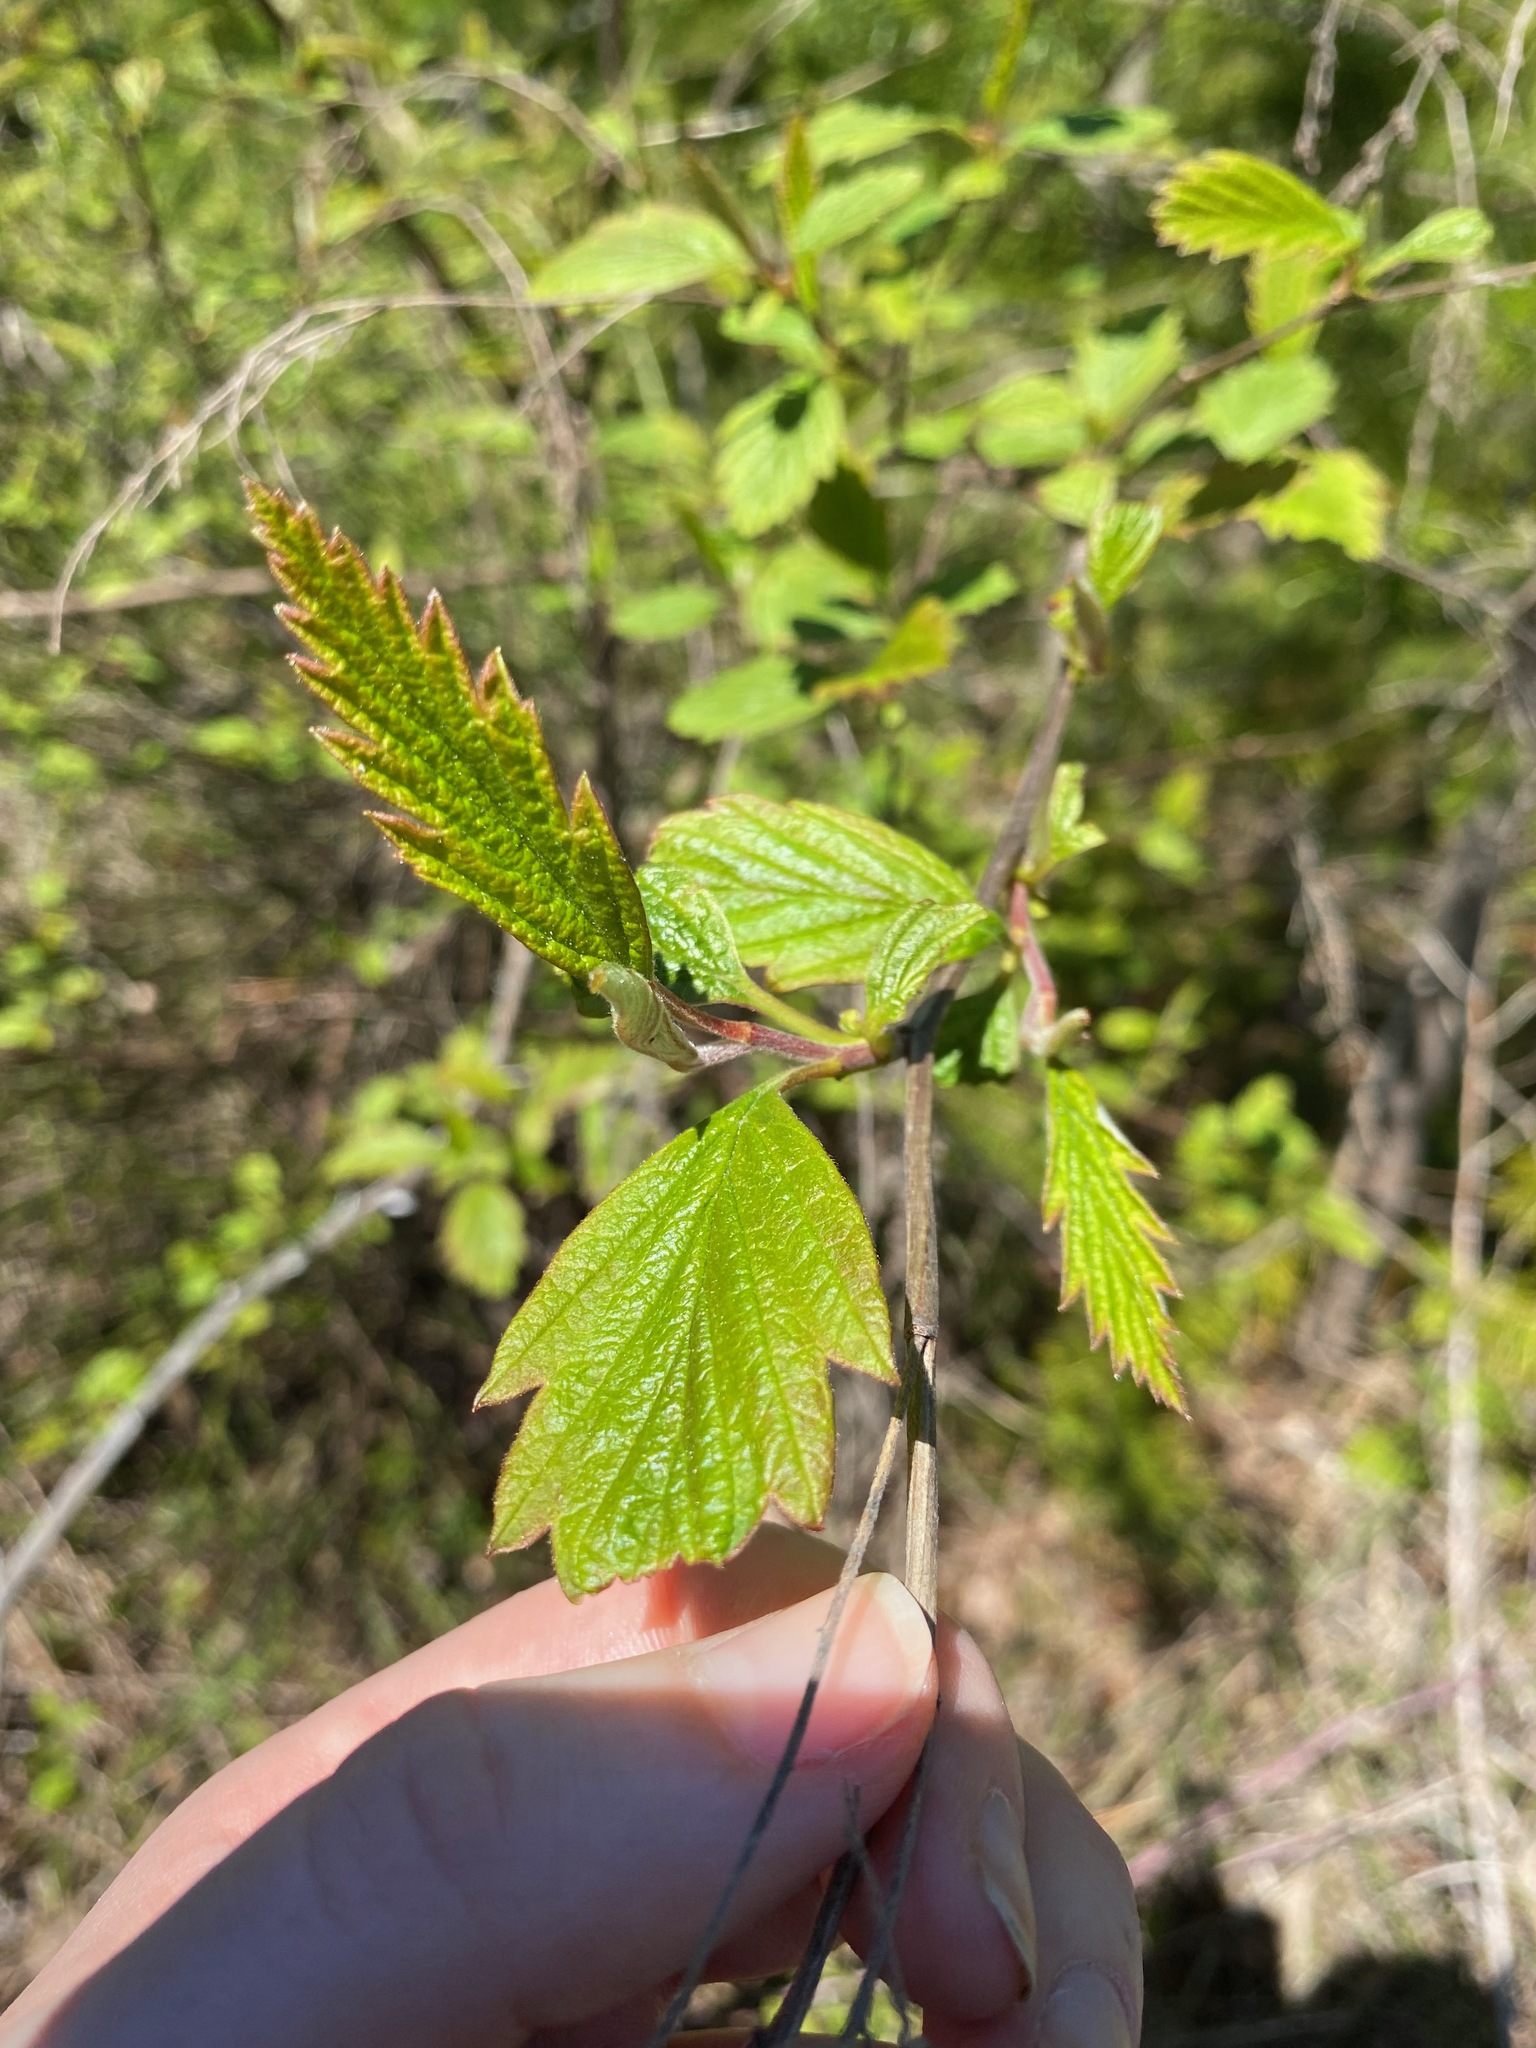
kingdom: Plantae
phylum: Tracheophyta
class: Magnoliopsida
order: Rosales
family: Rosaceae
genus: Holodiscus
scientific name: Holodiscus discolor
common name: Oceanspray
